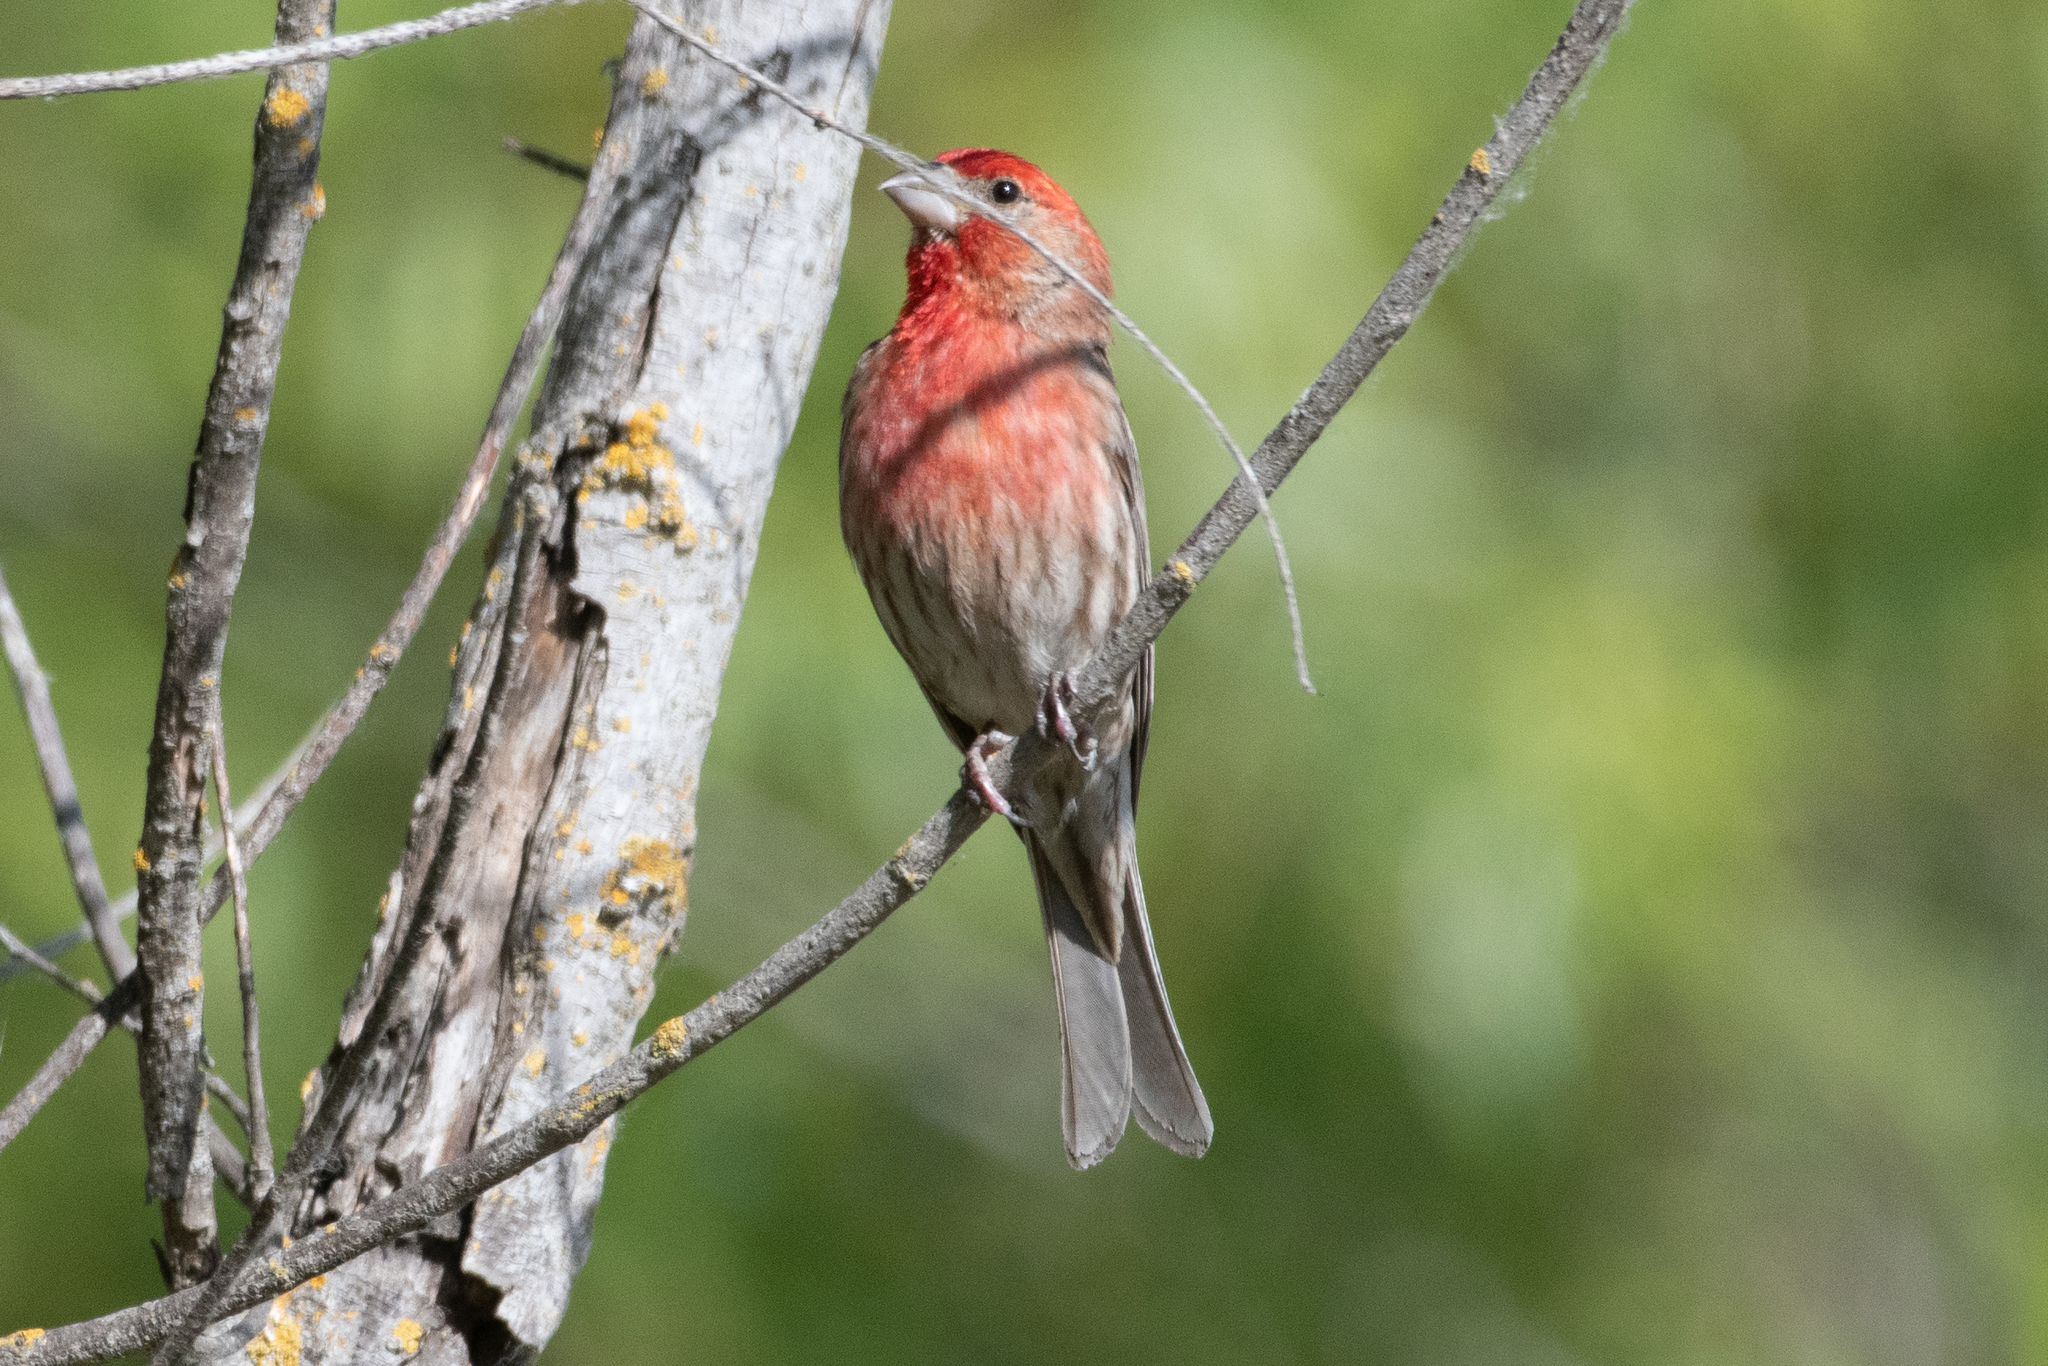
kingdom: Animalia
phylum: Chordata
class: Aves
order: Passeriformes
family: Fringillidae
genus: Haemorhous
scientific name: Haemorhous mexicanus
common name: House finch
